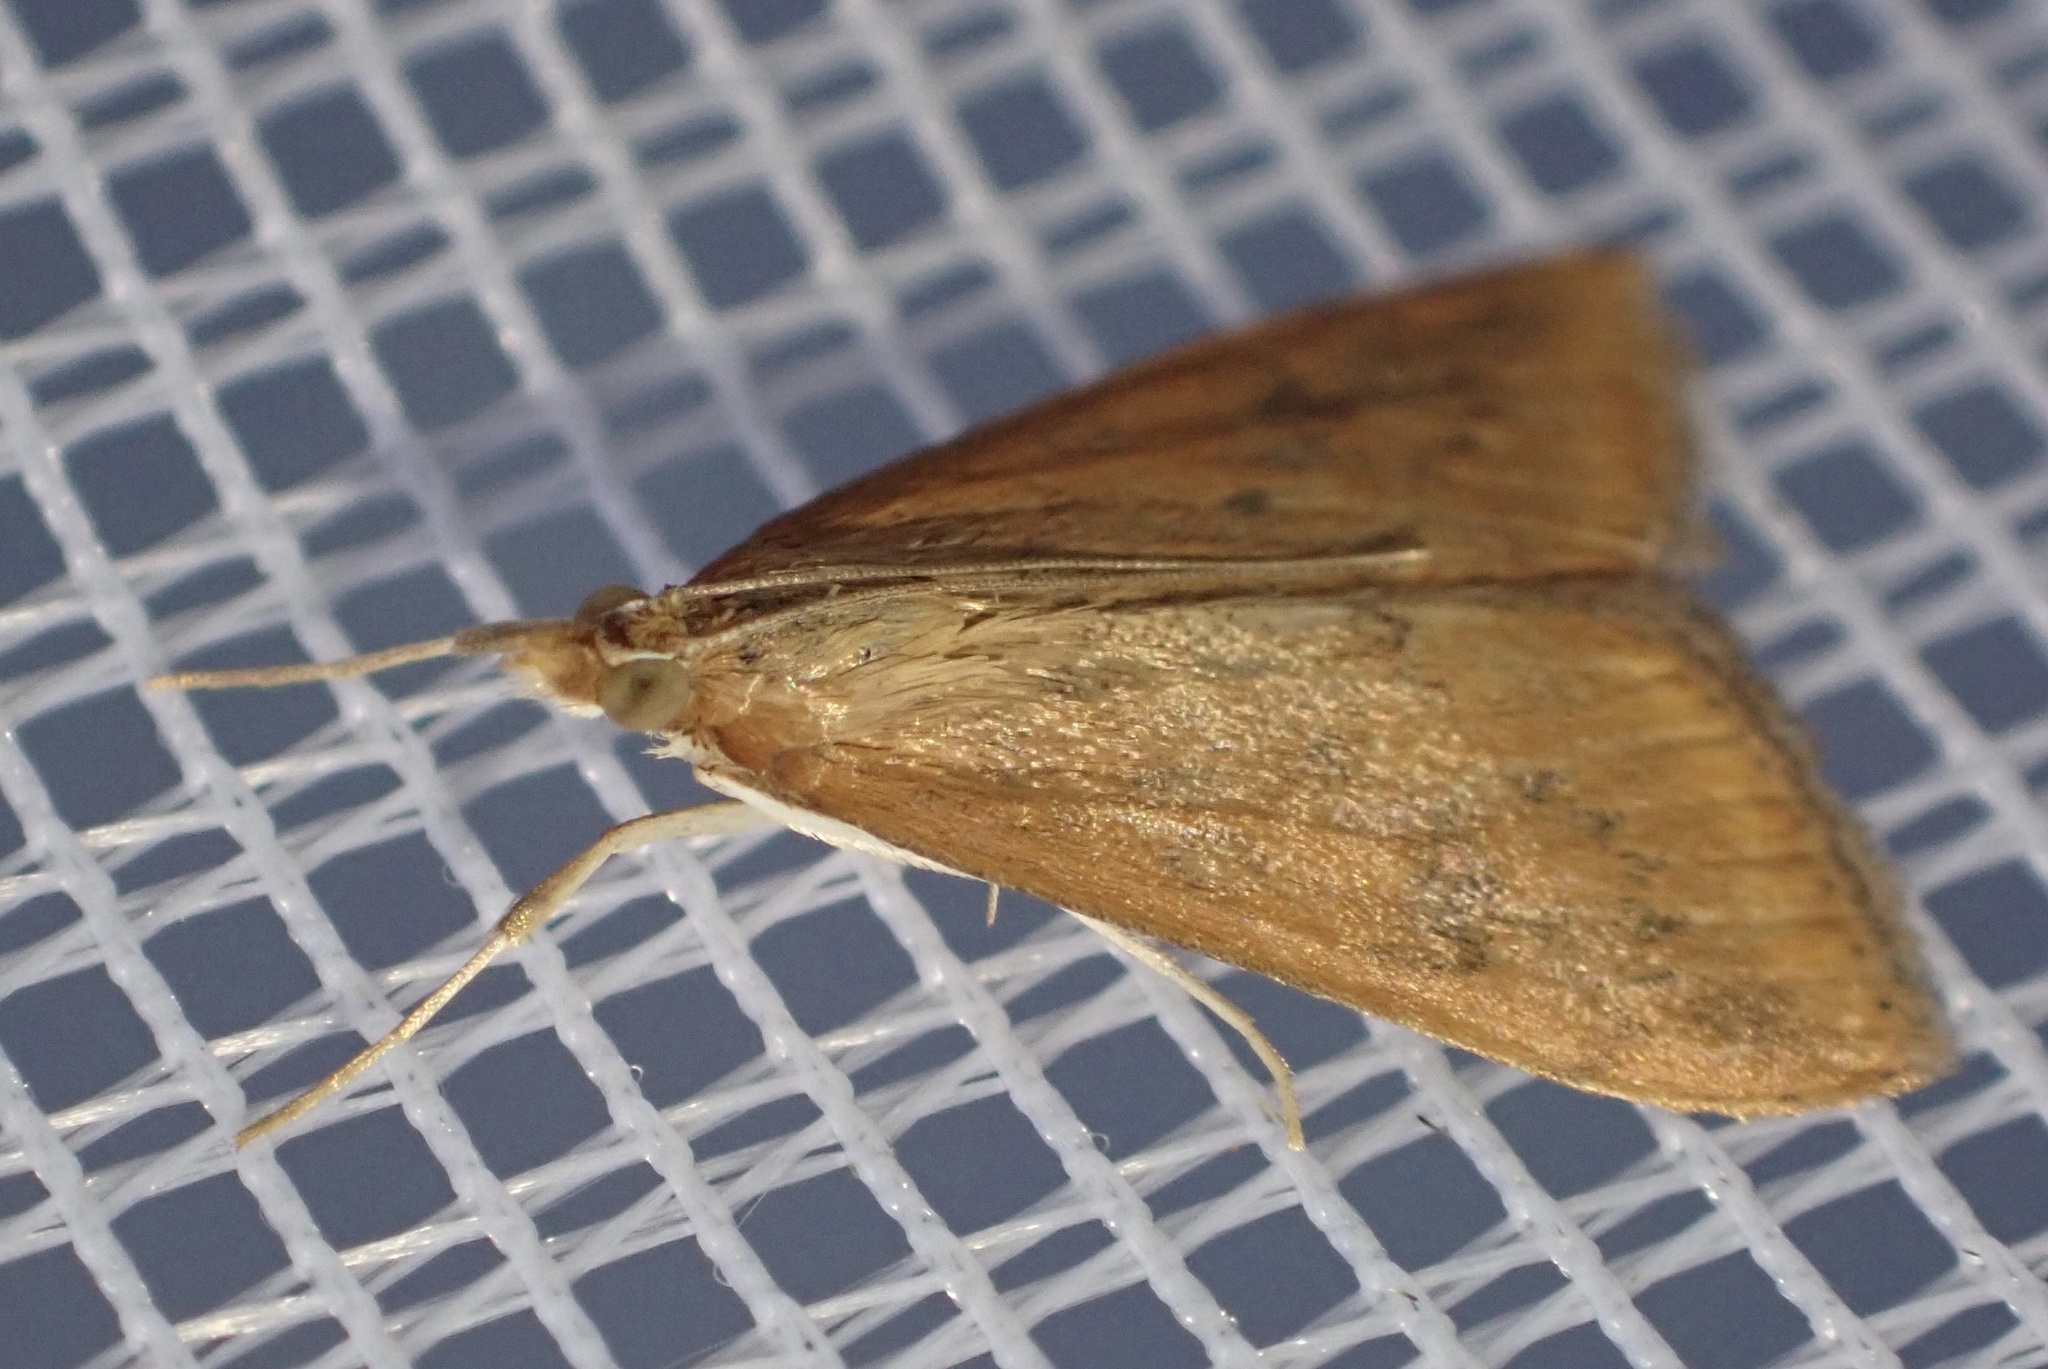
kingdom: Animalia
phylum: Arthropoda
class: Insecta
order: Lepidoptera
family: Crambidae
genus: Udea
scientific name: Udea ferrugalis
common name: Rusty dot
